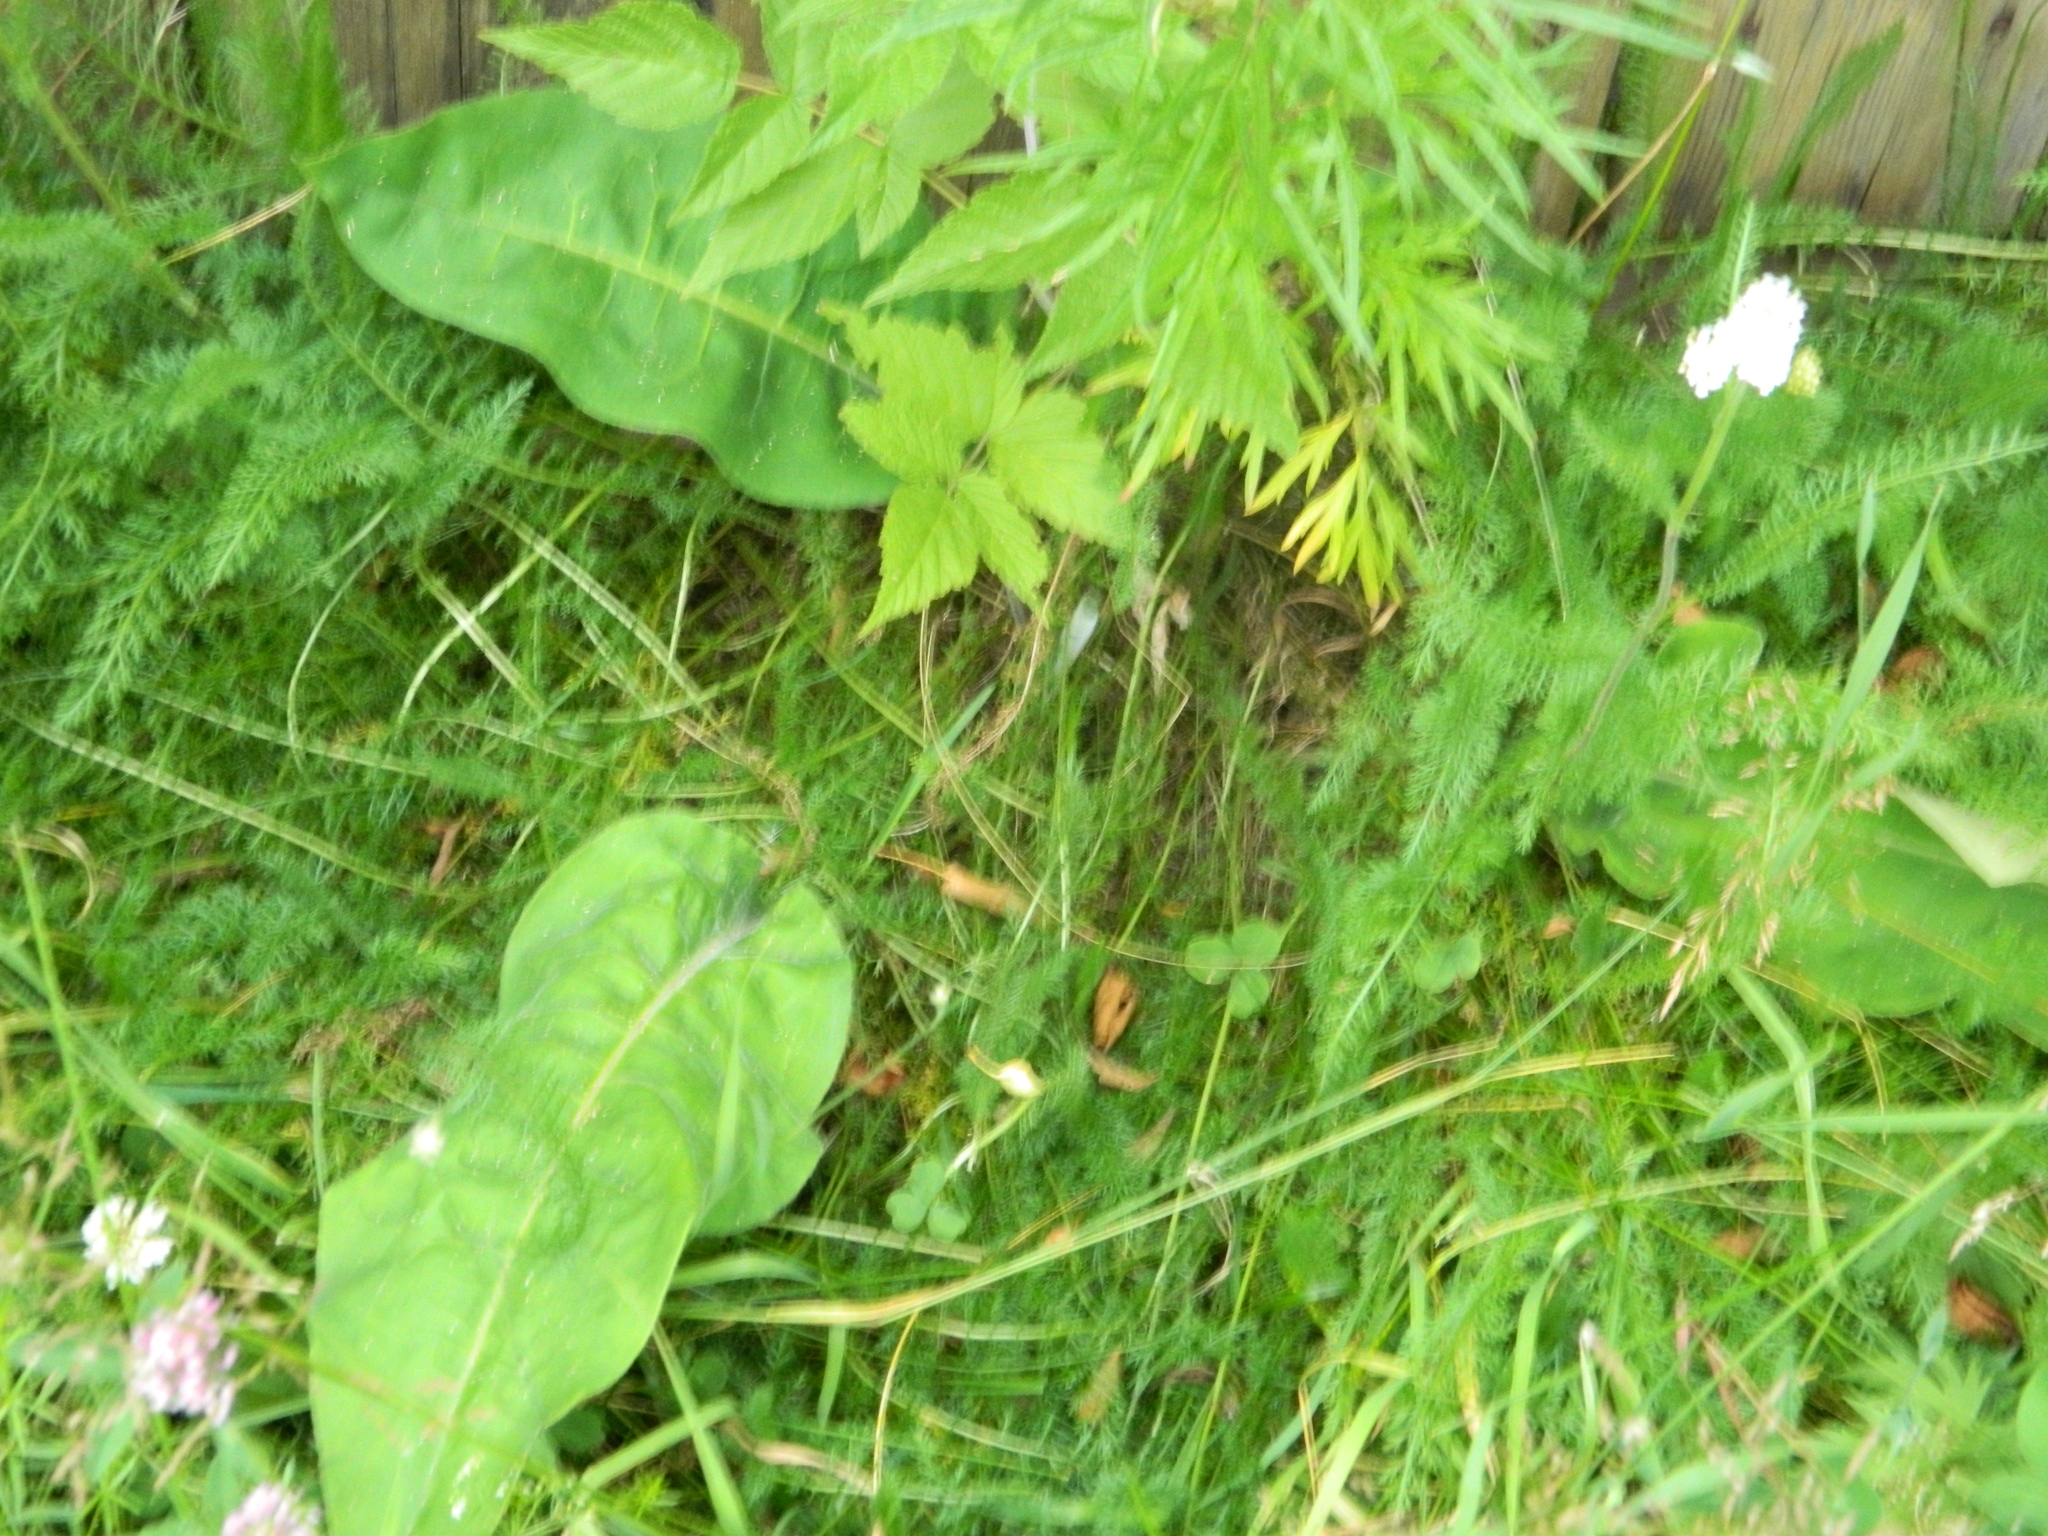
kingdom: Plantae
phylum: Tracheophyta
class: Magnoliopsida
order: Boraginales
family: Boraginaceae
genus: Pulmonaria
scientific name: Pulmonaria mollis
